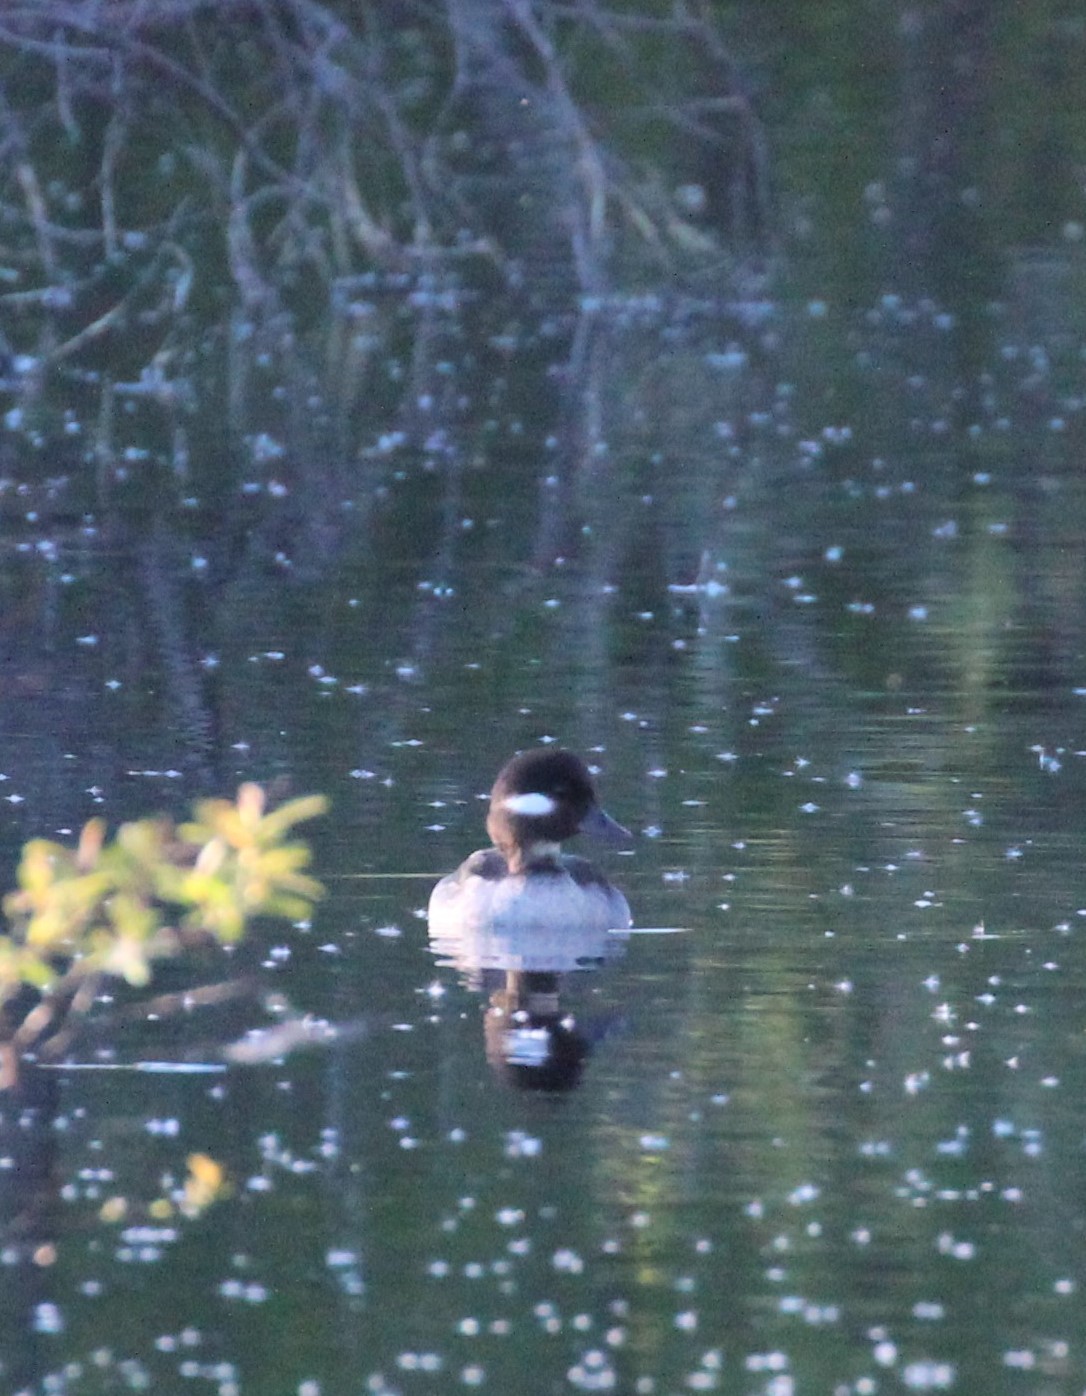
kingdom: Animalia
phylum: Chordata
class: Aves
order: Anseriformes
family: Anatidae
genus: Bucephala
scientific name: Bucephala albeola
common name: Bufflehead
